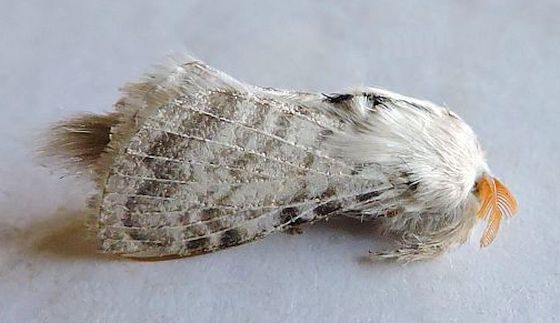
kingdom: Animalia
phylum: Arthropoda
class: Insecta
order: Lepidoptera
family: Lasiocampidae
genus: Apotolype
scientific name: Apotolype brevicrista
